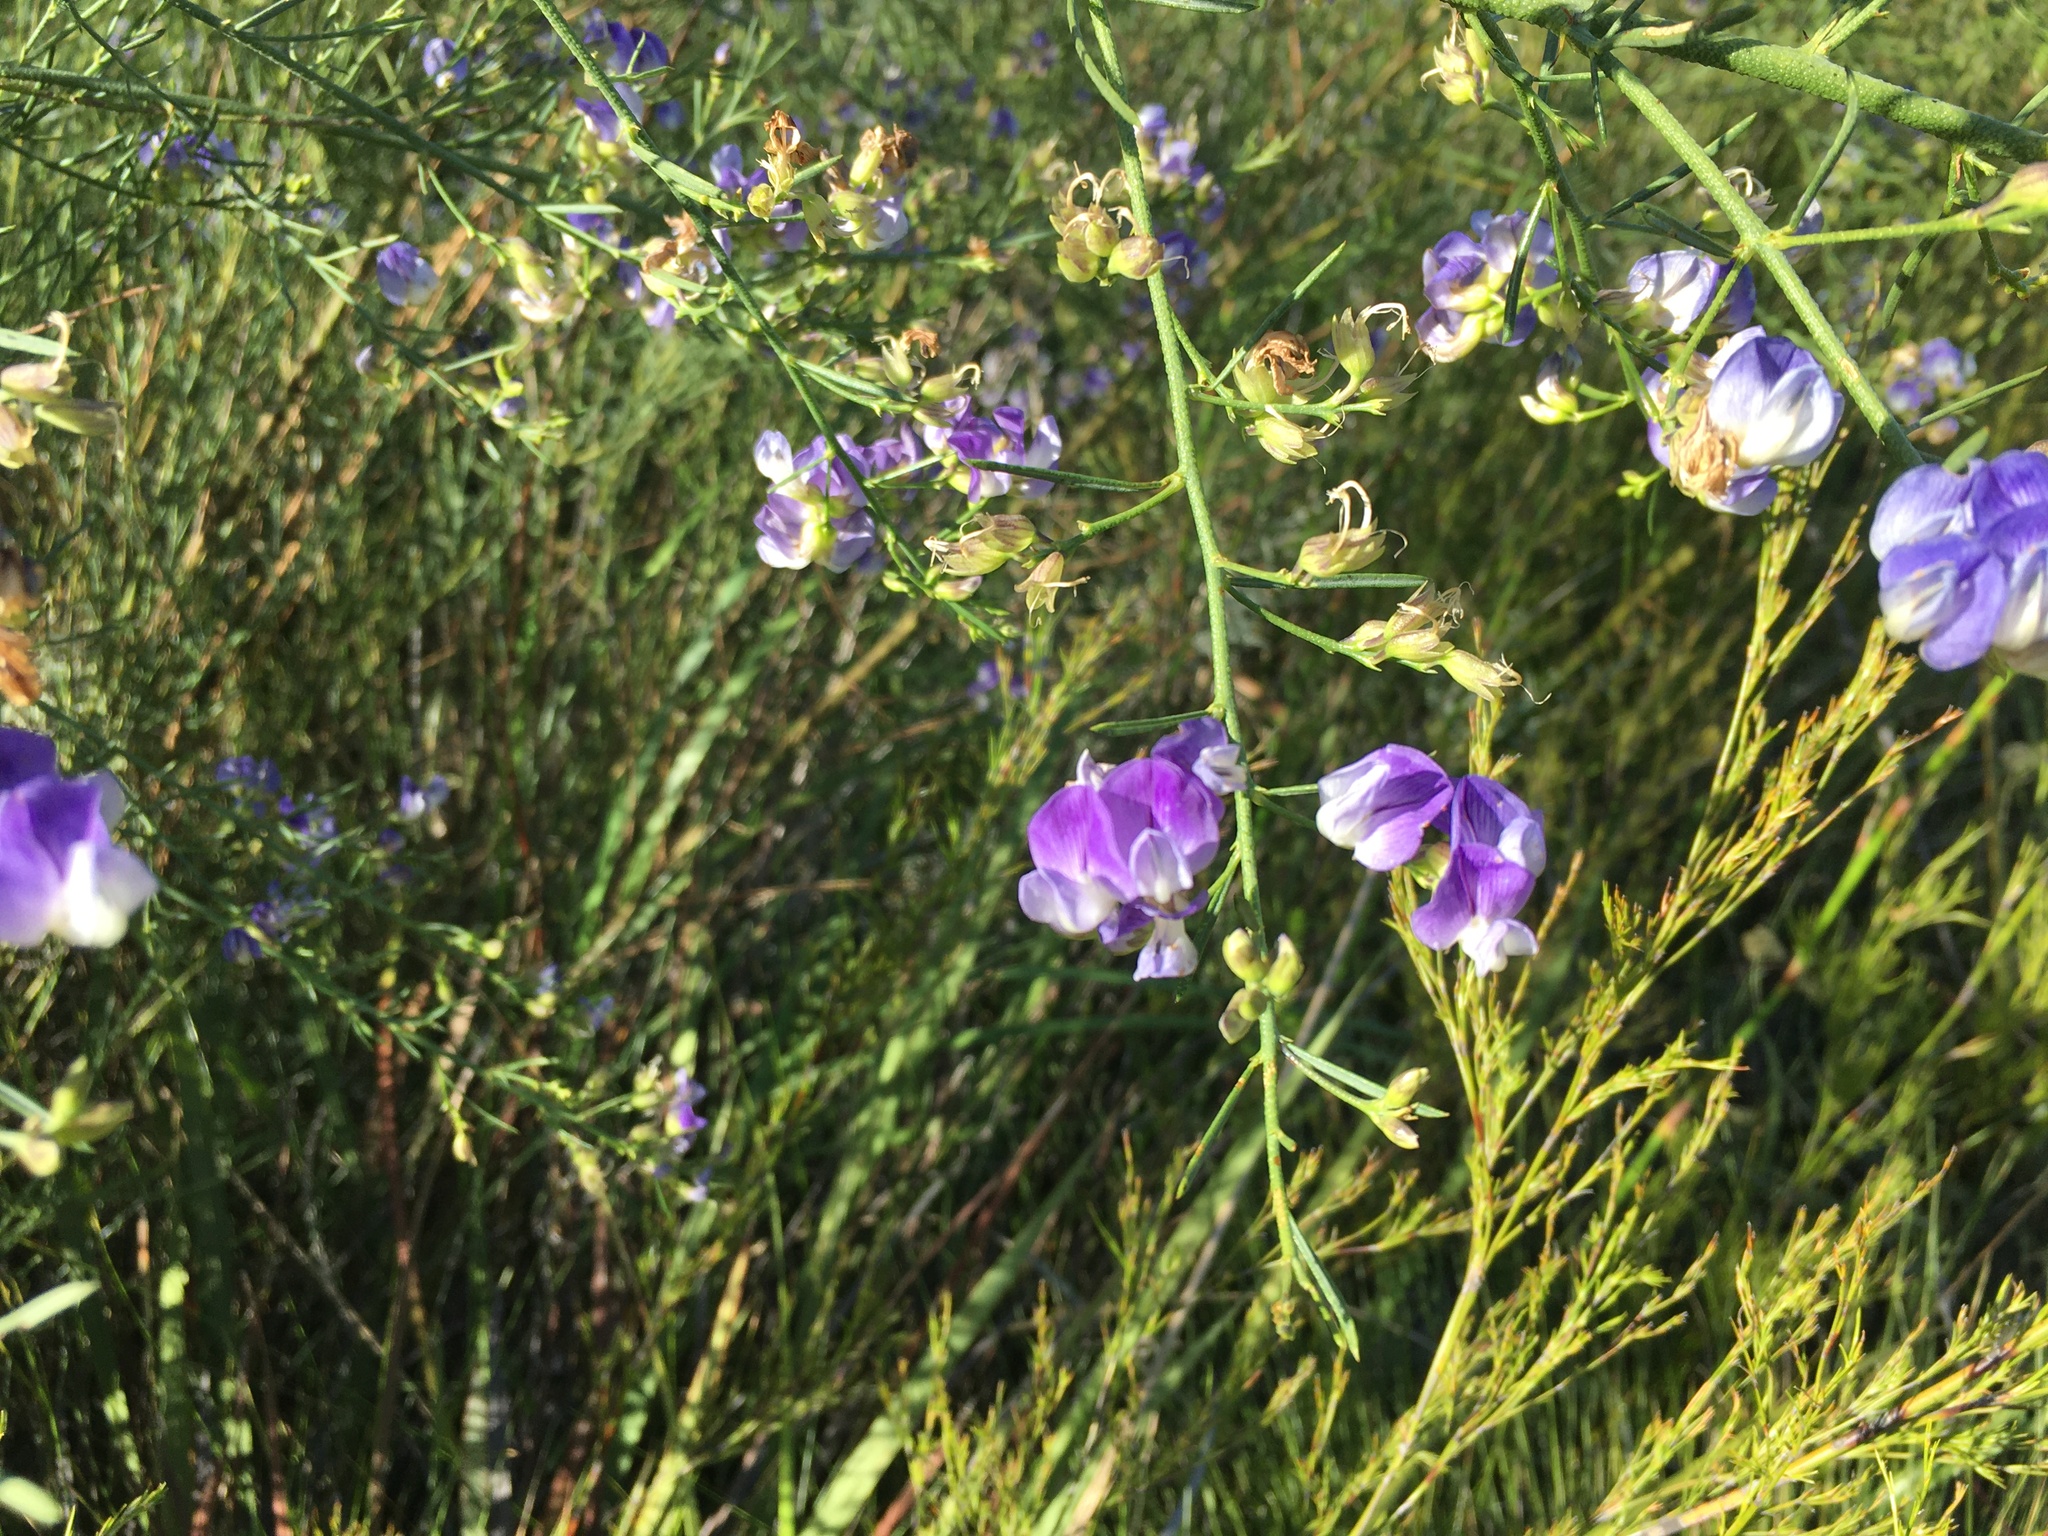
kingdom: Plantae
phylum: Tracheophyta
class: Magnoliopsida
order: Fabales
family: Fabaceae
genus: Psoralea
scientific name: Psoralea verrucosa
